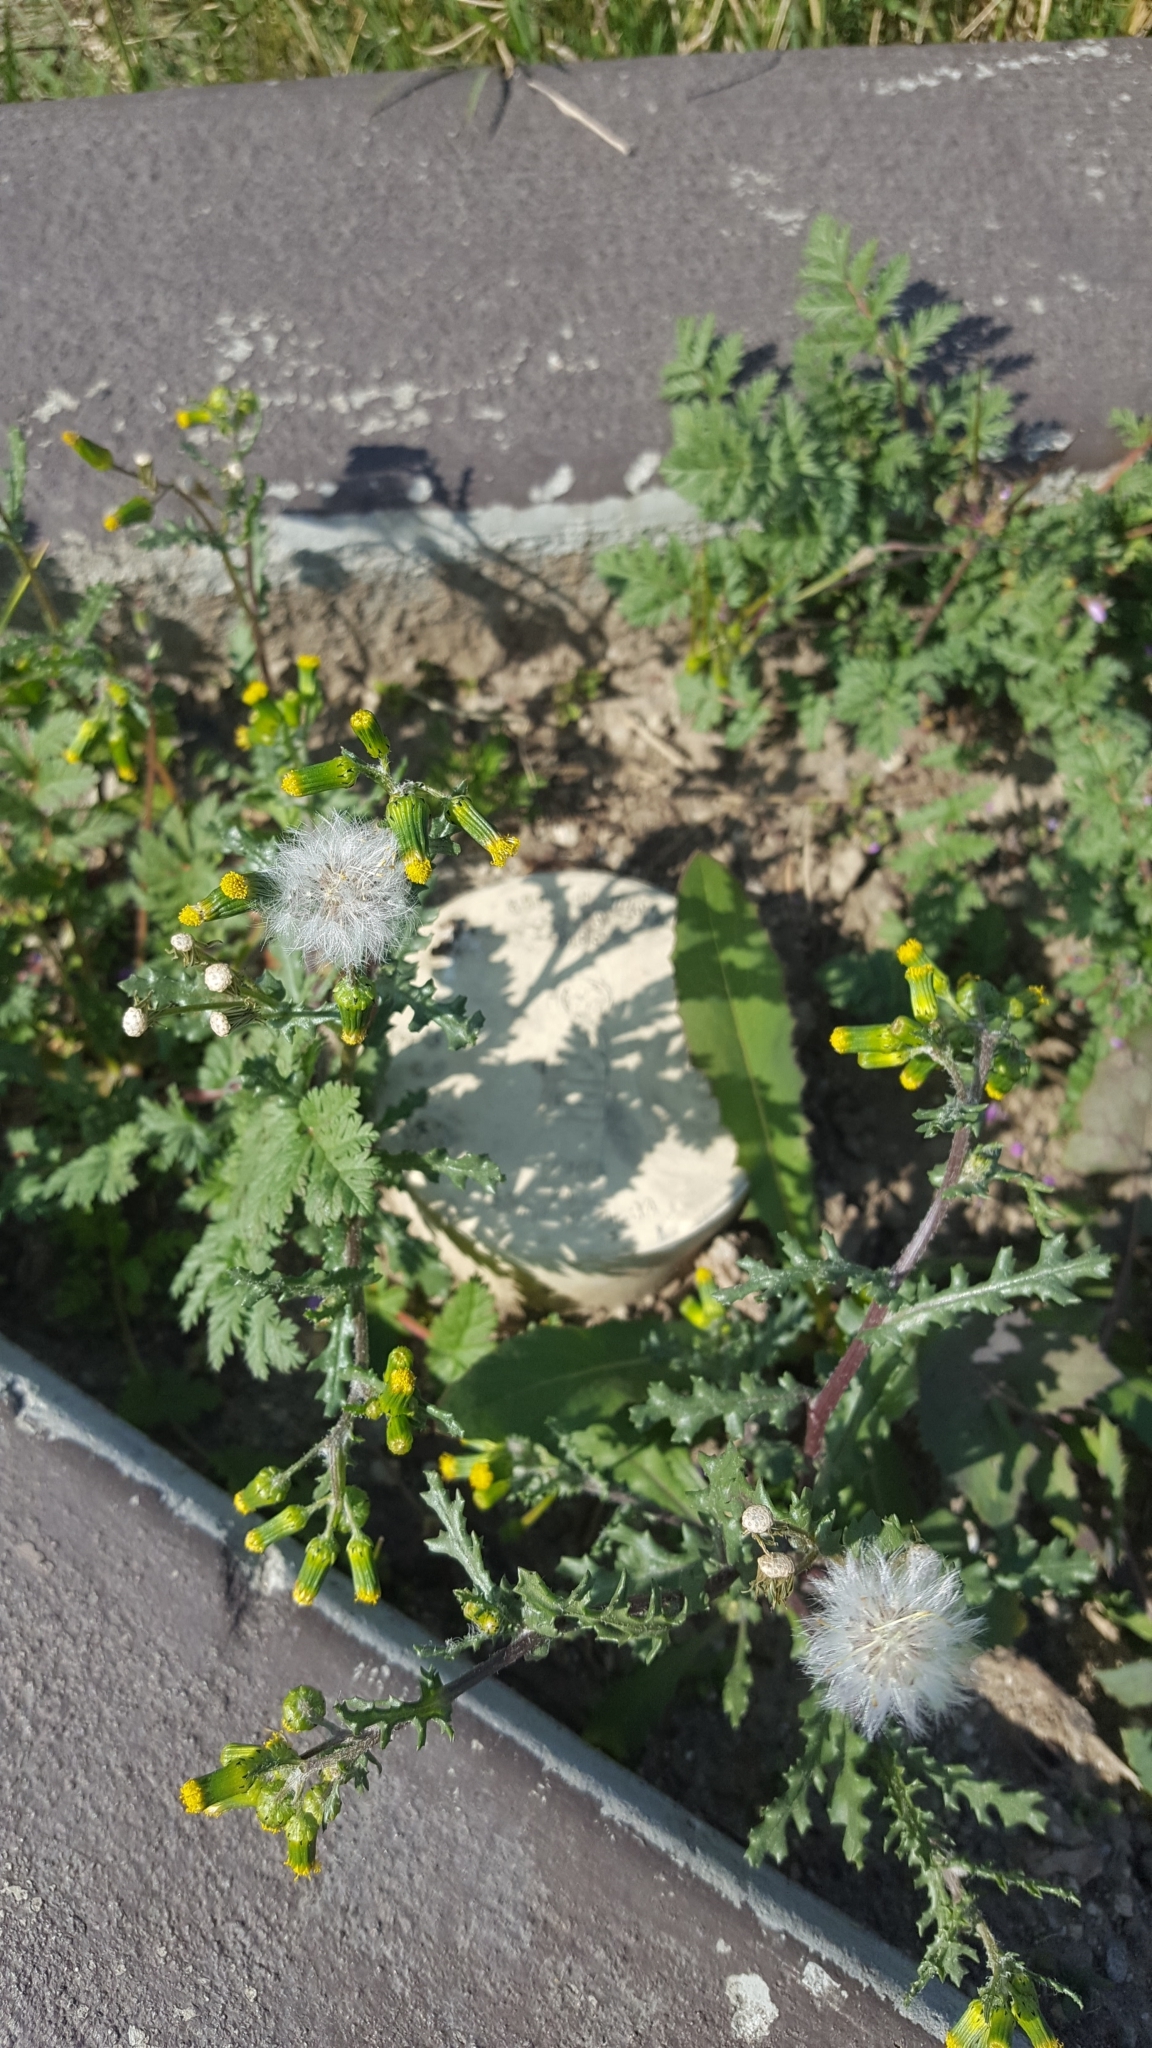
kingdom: Plantae
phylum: Tracheophyta
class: Magnoliopsida
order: Asterales
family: Asteraceae
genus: Senecio
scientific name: Senecio vulgaris
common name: Old-man-in-the-spring
